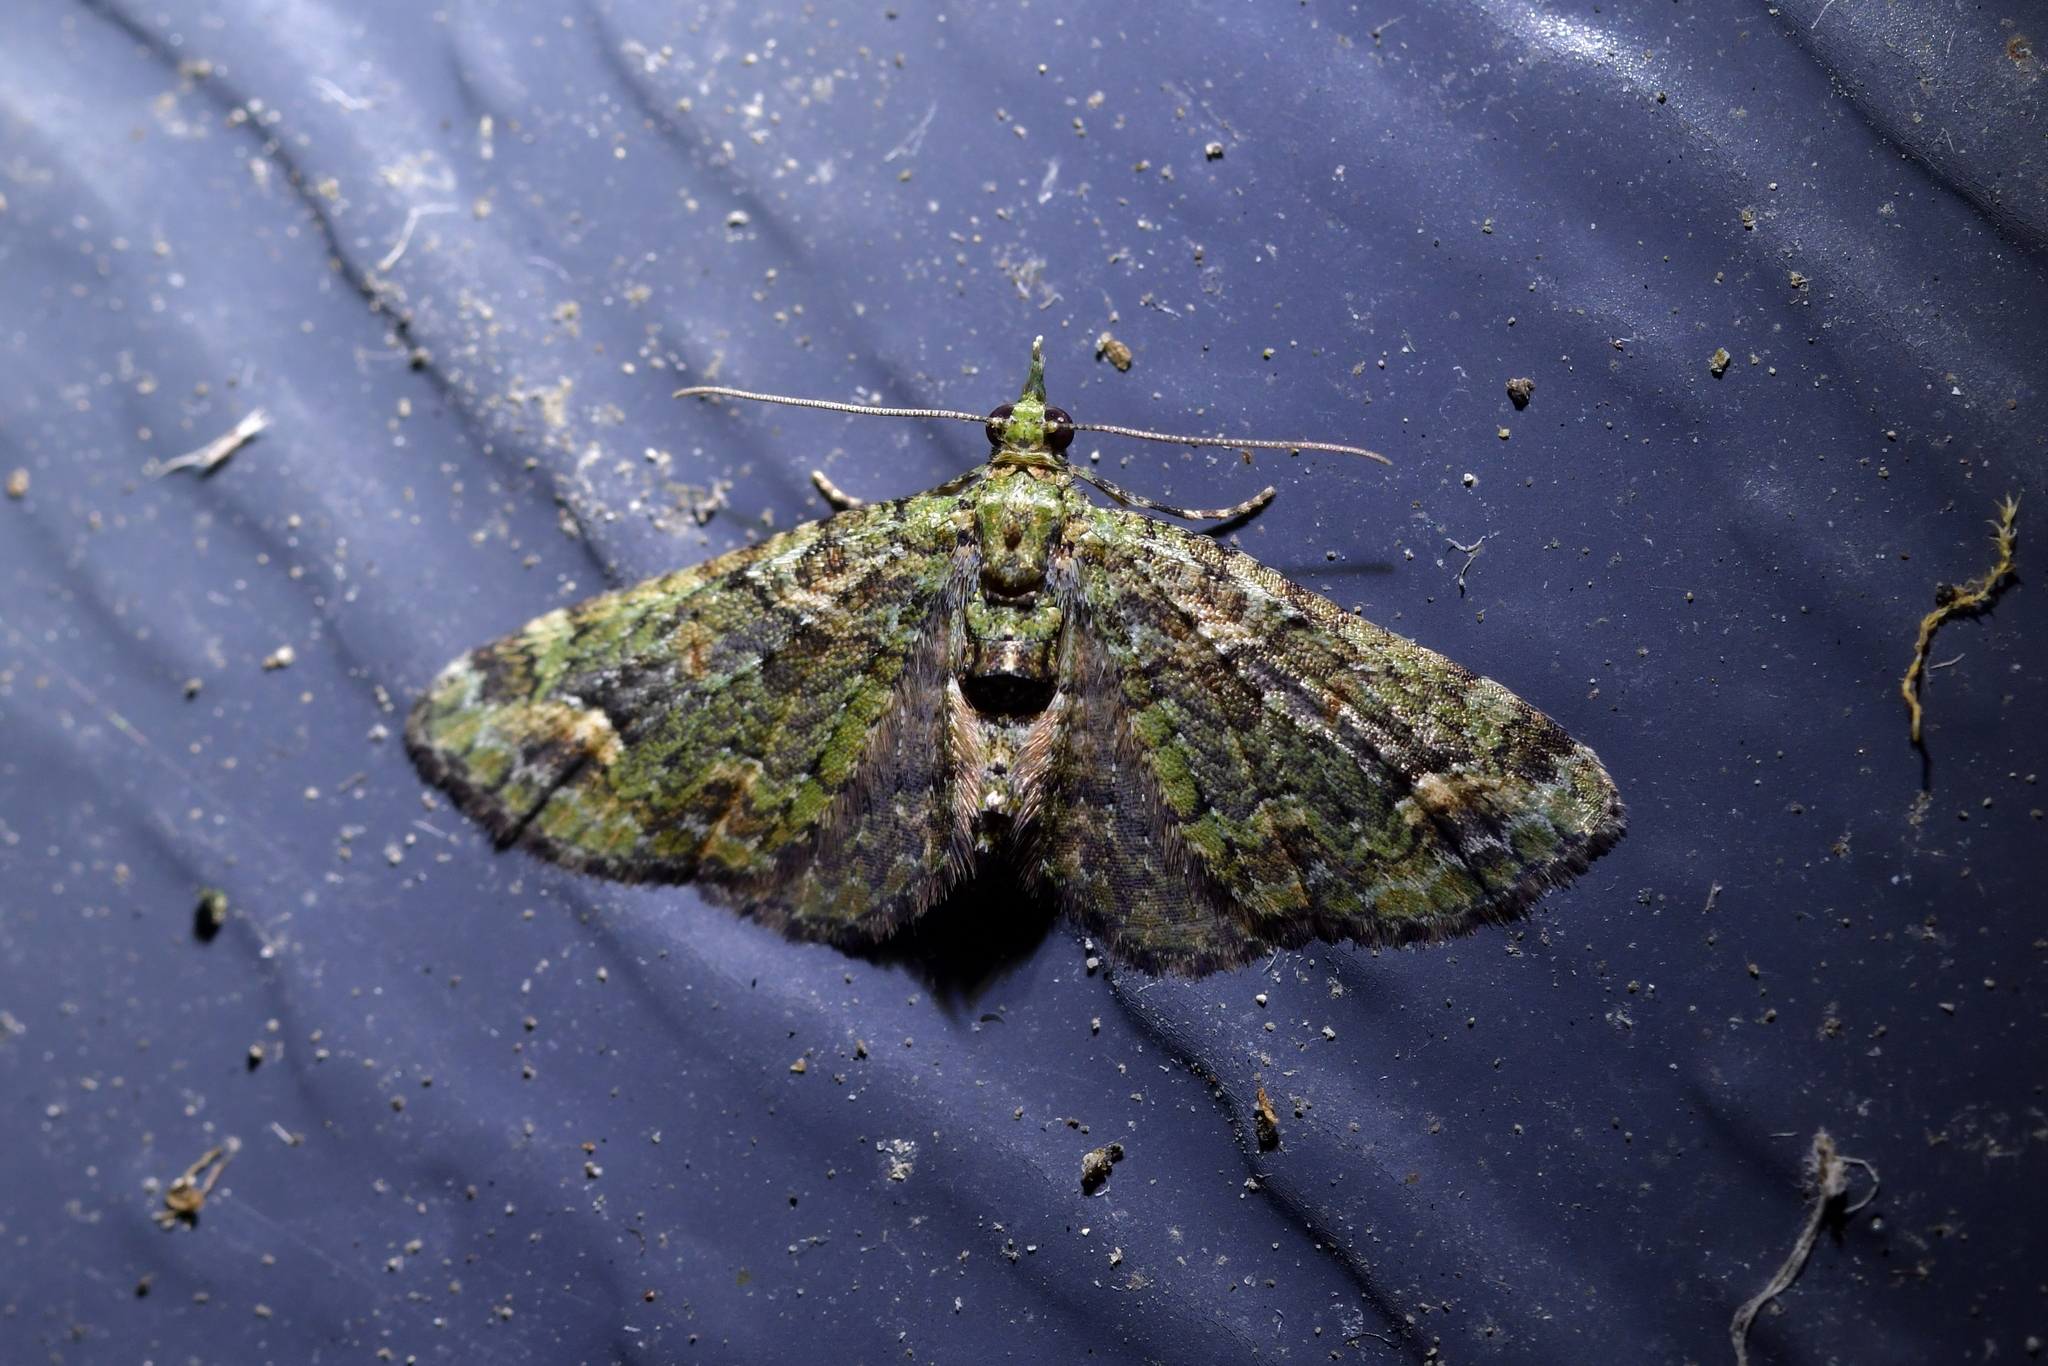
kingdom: Animalia
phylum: Arthropoda
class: Insecta
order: Lepidoptera
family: Geometridae
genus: Idaea
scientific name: Idaea mutanda
